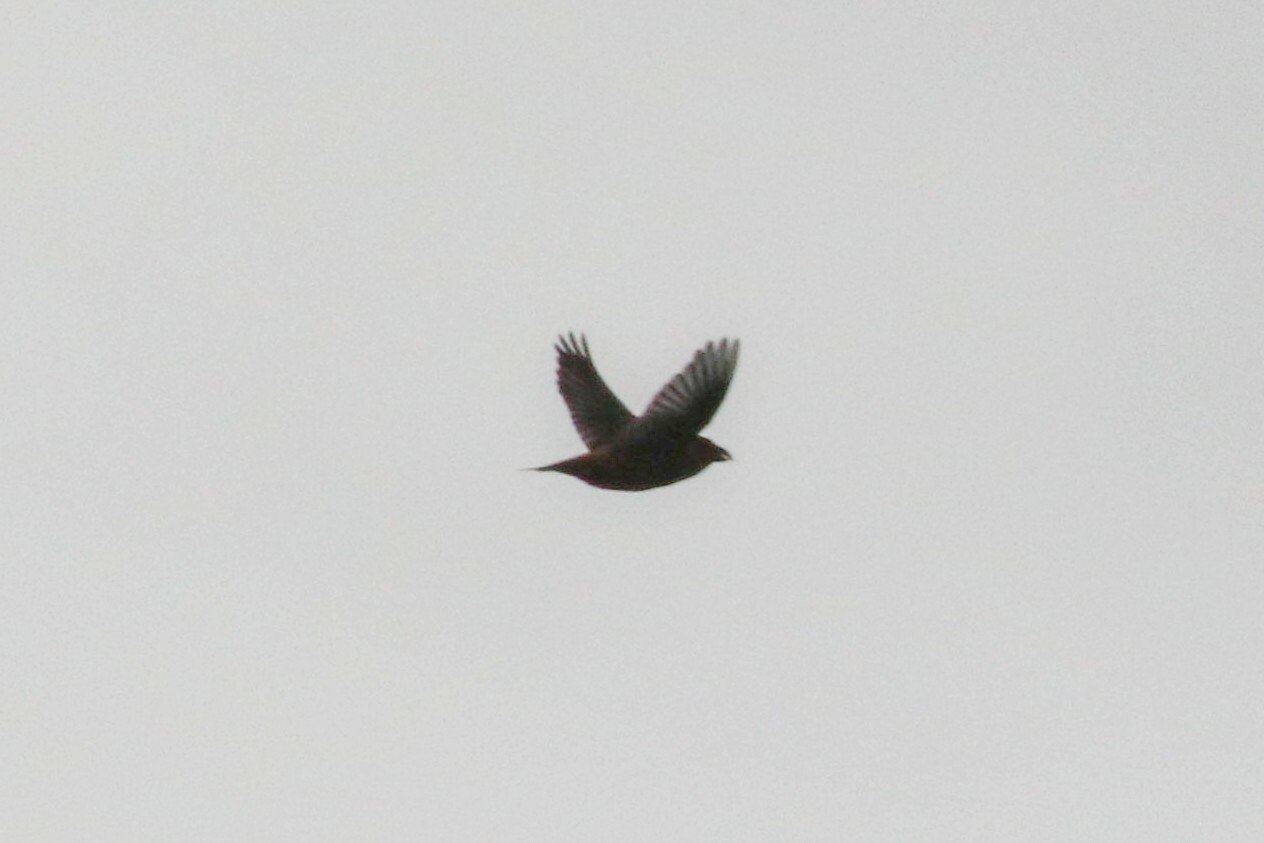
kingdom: Animalia
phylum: Chordata
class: Aves
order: Passeriformes
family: Fringillidae
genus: Loxia
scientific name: Loxia curvirostra
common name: Red crossbill
